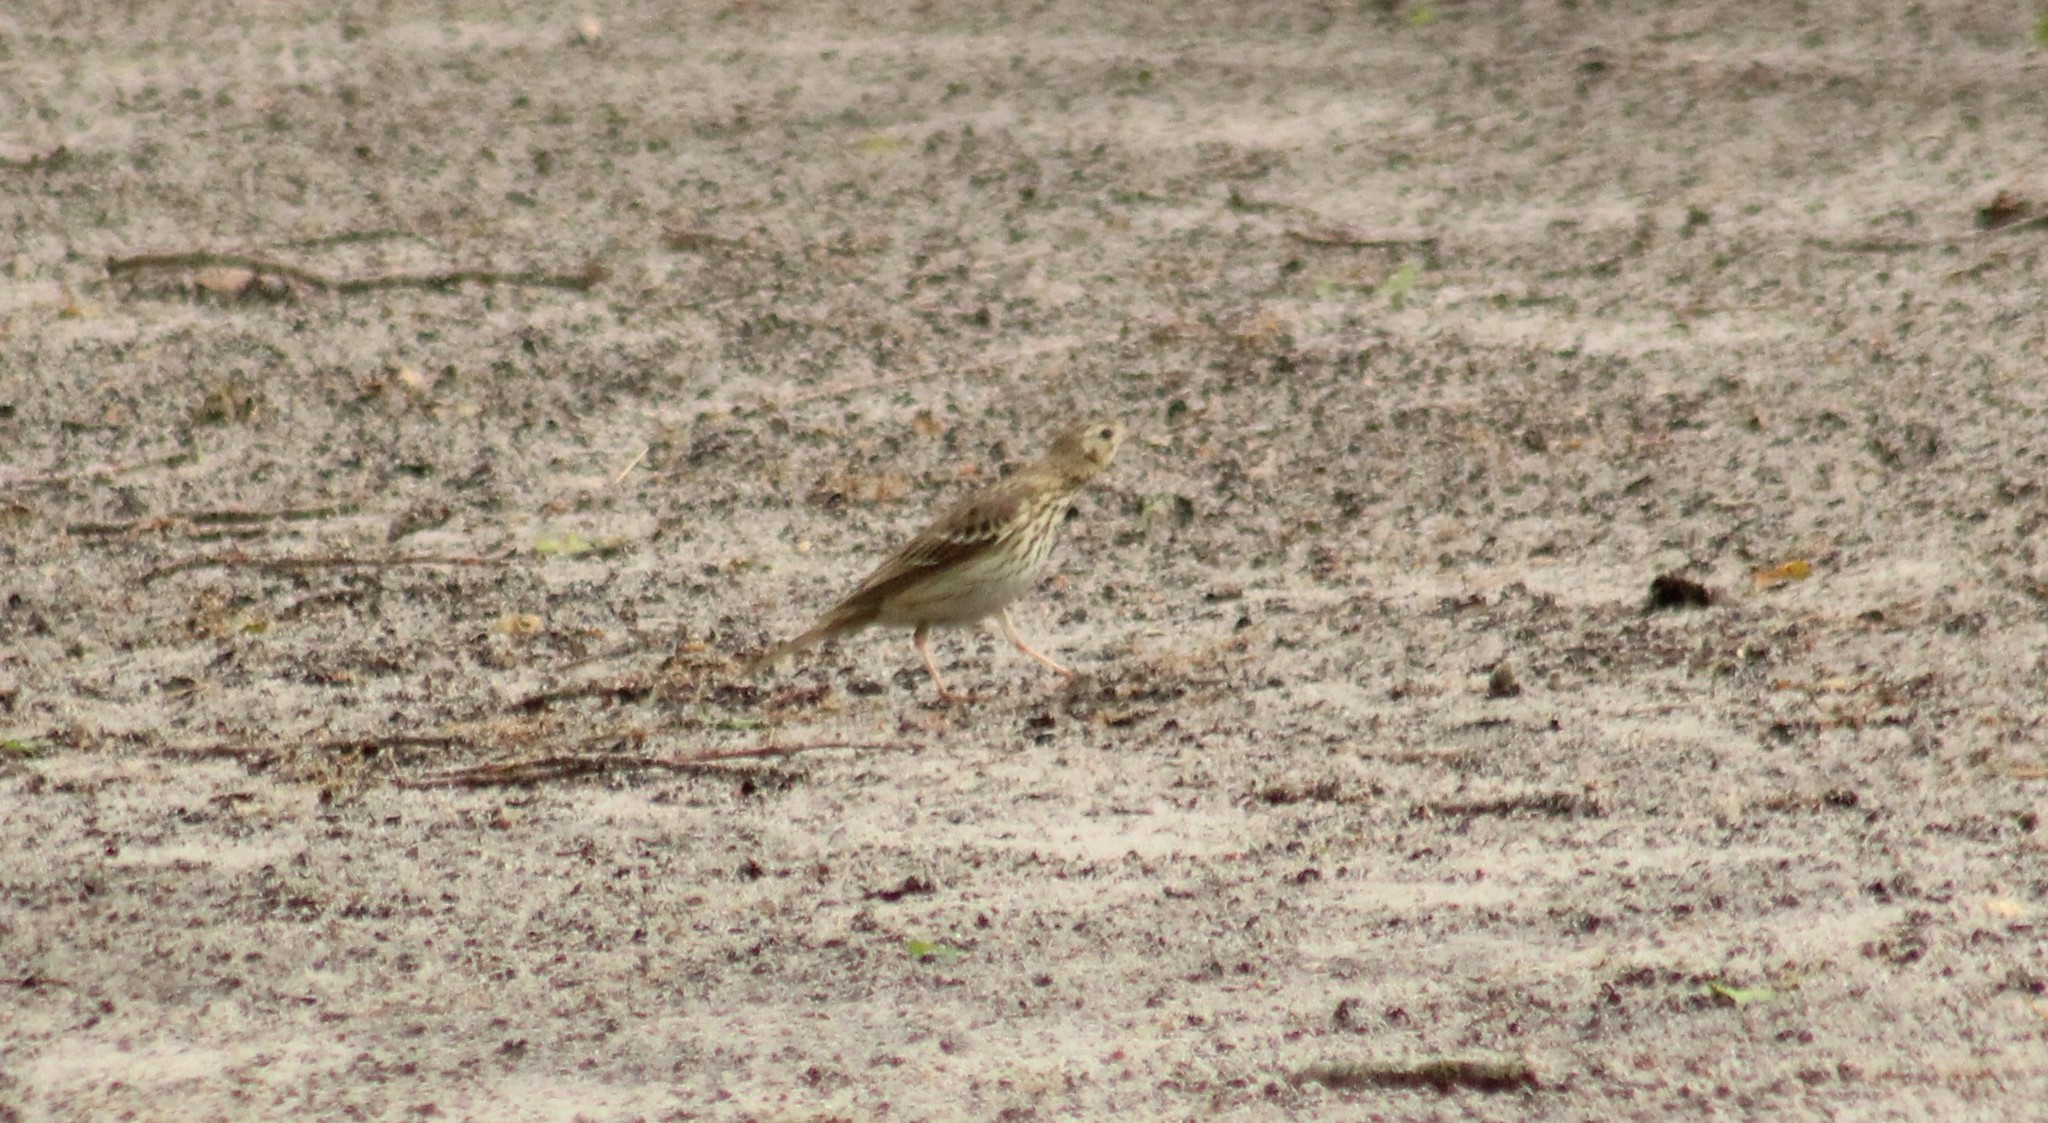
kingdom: Animalia
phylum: Chordata
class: Aves
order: Passeriformes
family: Motacillidae
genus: Anthus
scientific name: Anthus trivialis
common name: Tree pipit
